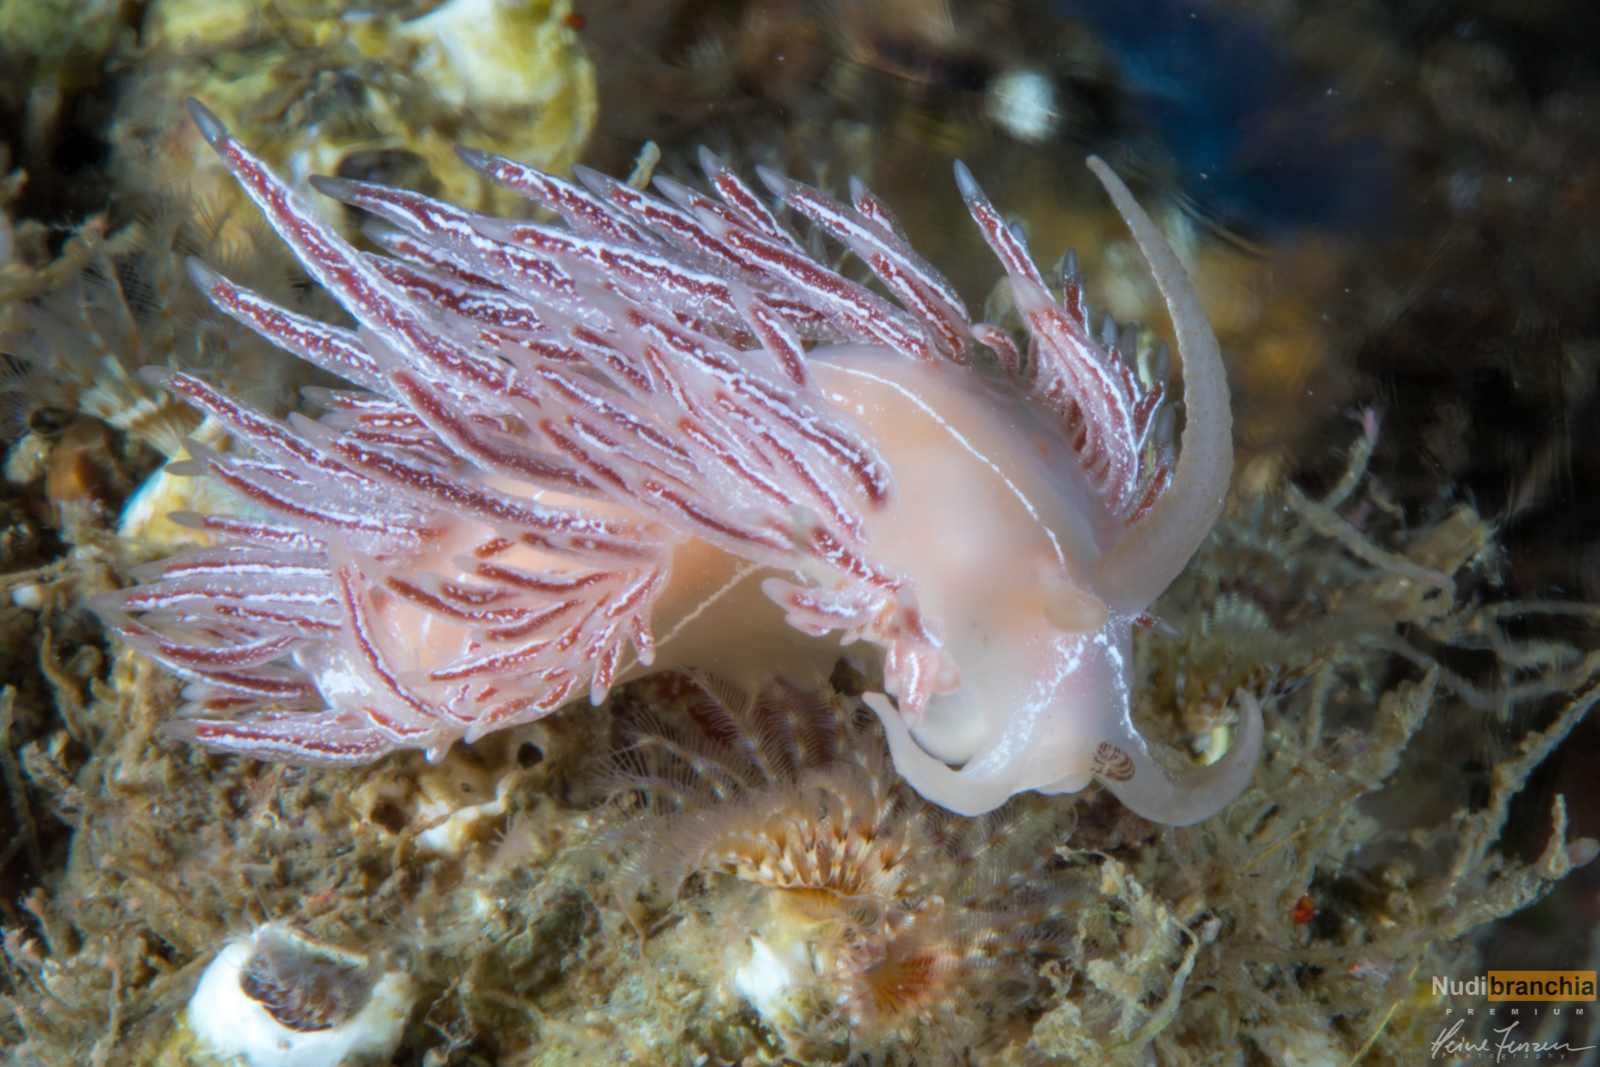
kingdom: Animalia
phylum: Mollusca
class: Gastropoda
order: Nudibranchia
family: Coryphellidae
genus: Coryphella
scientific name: Coryphella chriskaugei
